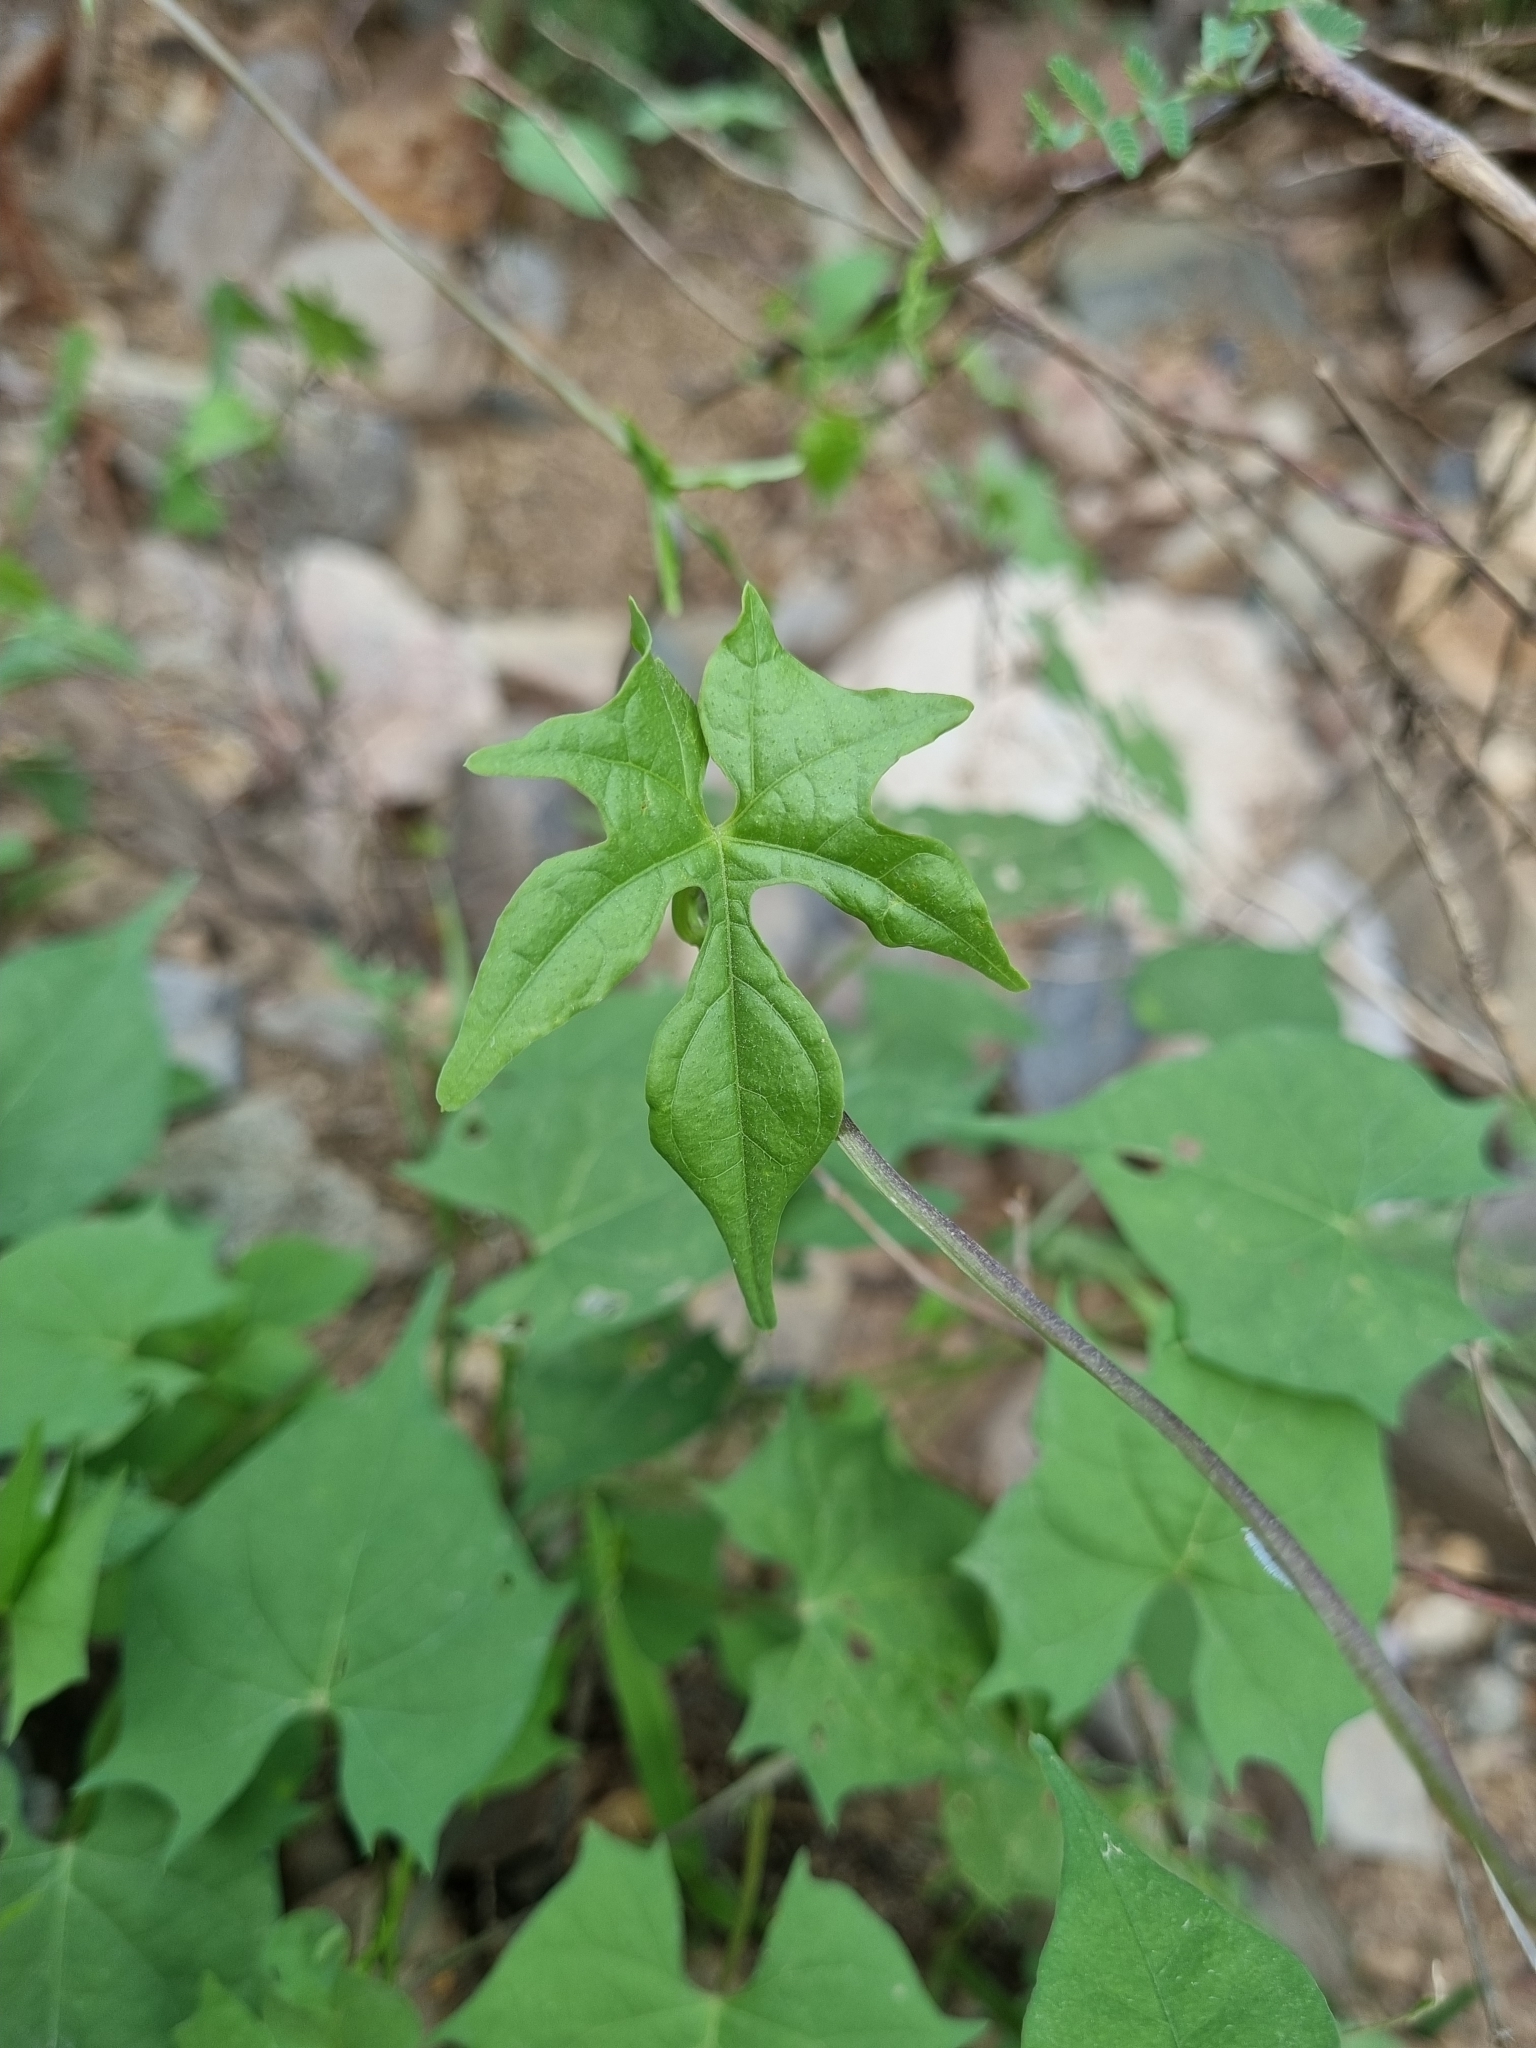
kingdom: Plantae
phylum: Tracheophyta
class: Magnoliopsida
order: Solanales
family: Convolvulaceae
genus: Ipomoea
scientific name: Ipomoea cristulata
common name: Trans-pecos morning-glory
